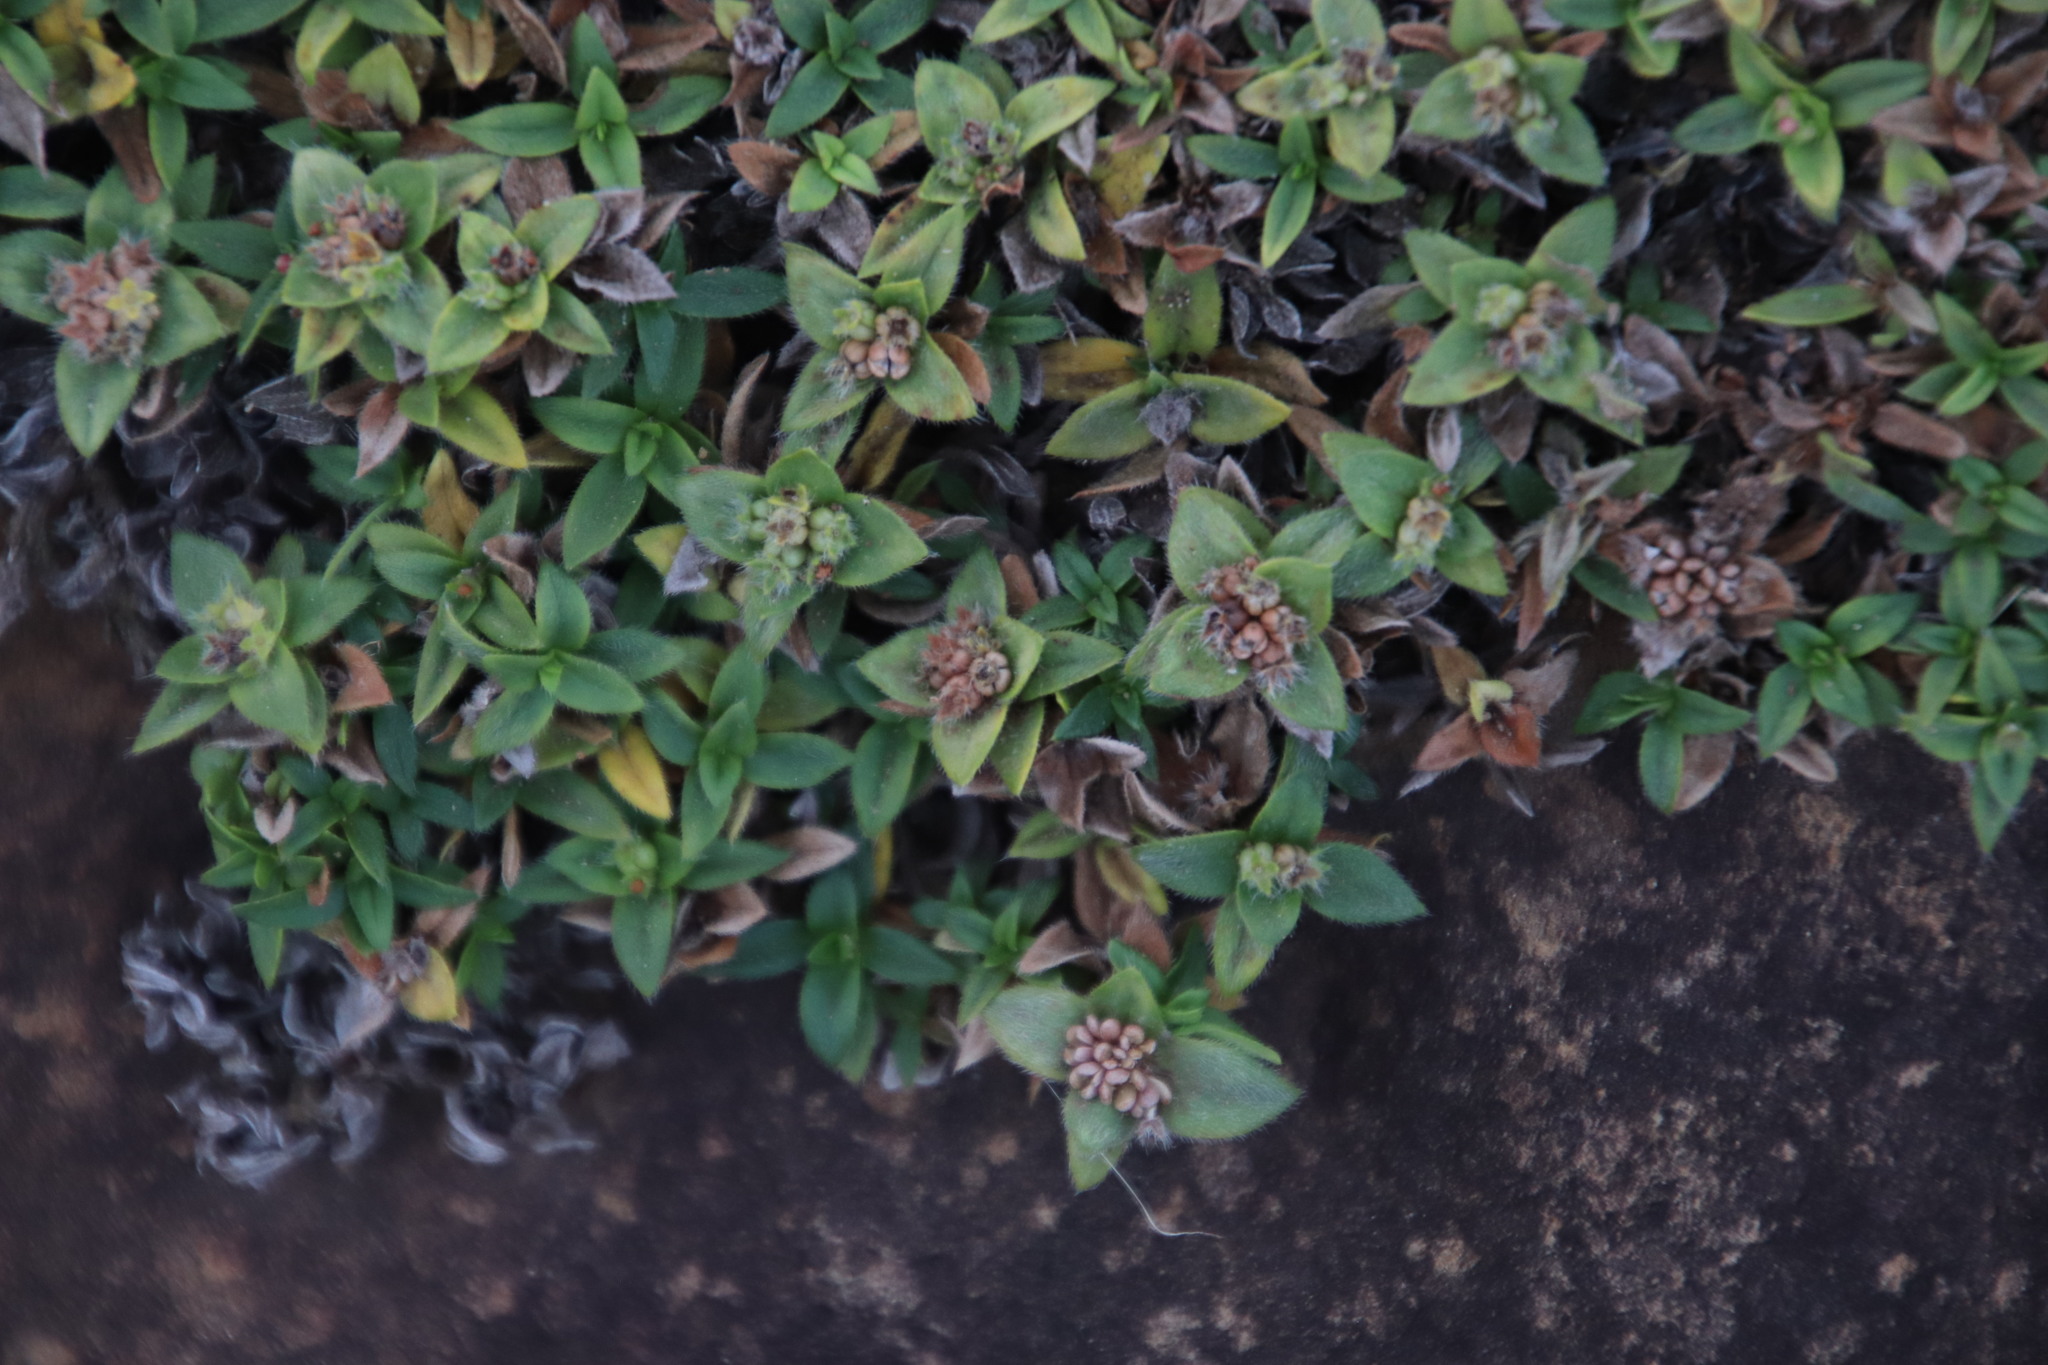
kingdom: Plantae
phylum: Tracheophyta
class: Magnoliopsida
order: Saxifragales
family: Crassulaceae
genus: Crassula
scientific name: Crassula setulosa
